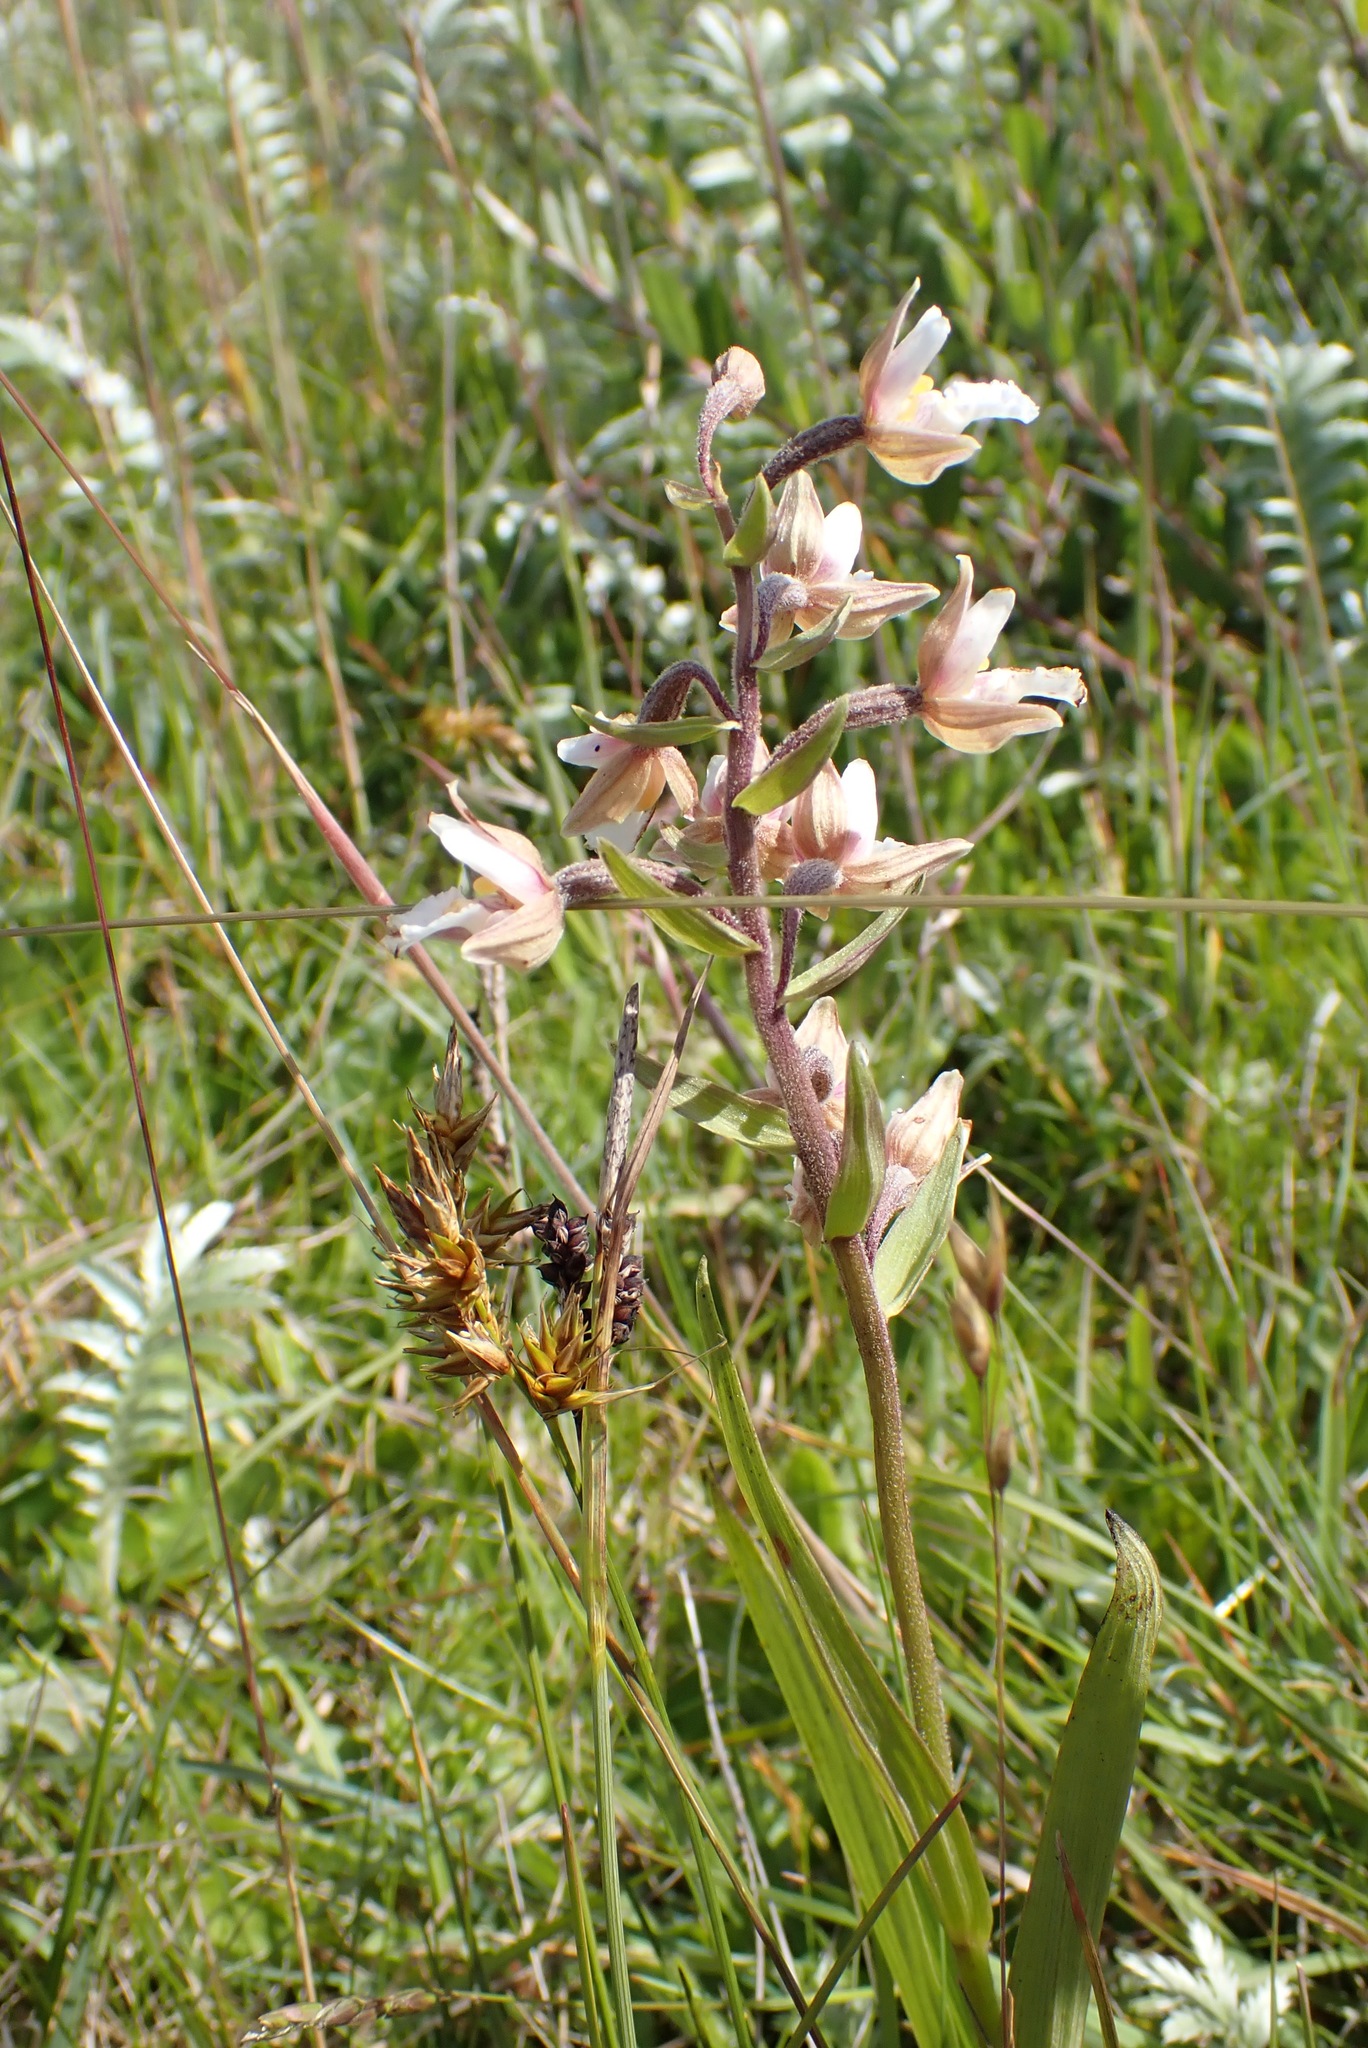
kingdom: Plantae
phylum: Tracheophyta
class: Liliopsida
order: Asparagales
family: Orchidaceae
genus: Epipactis
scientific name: Epipactis palustris
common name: Marsh helleborine
